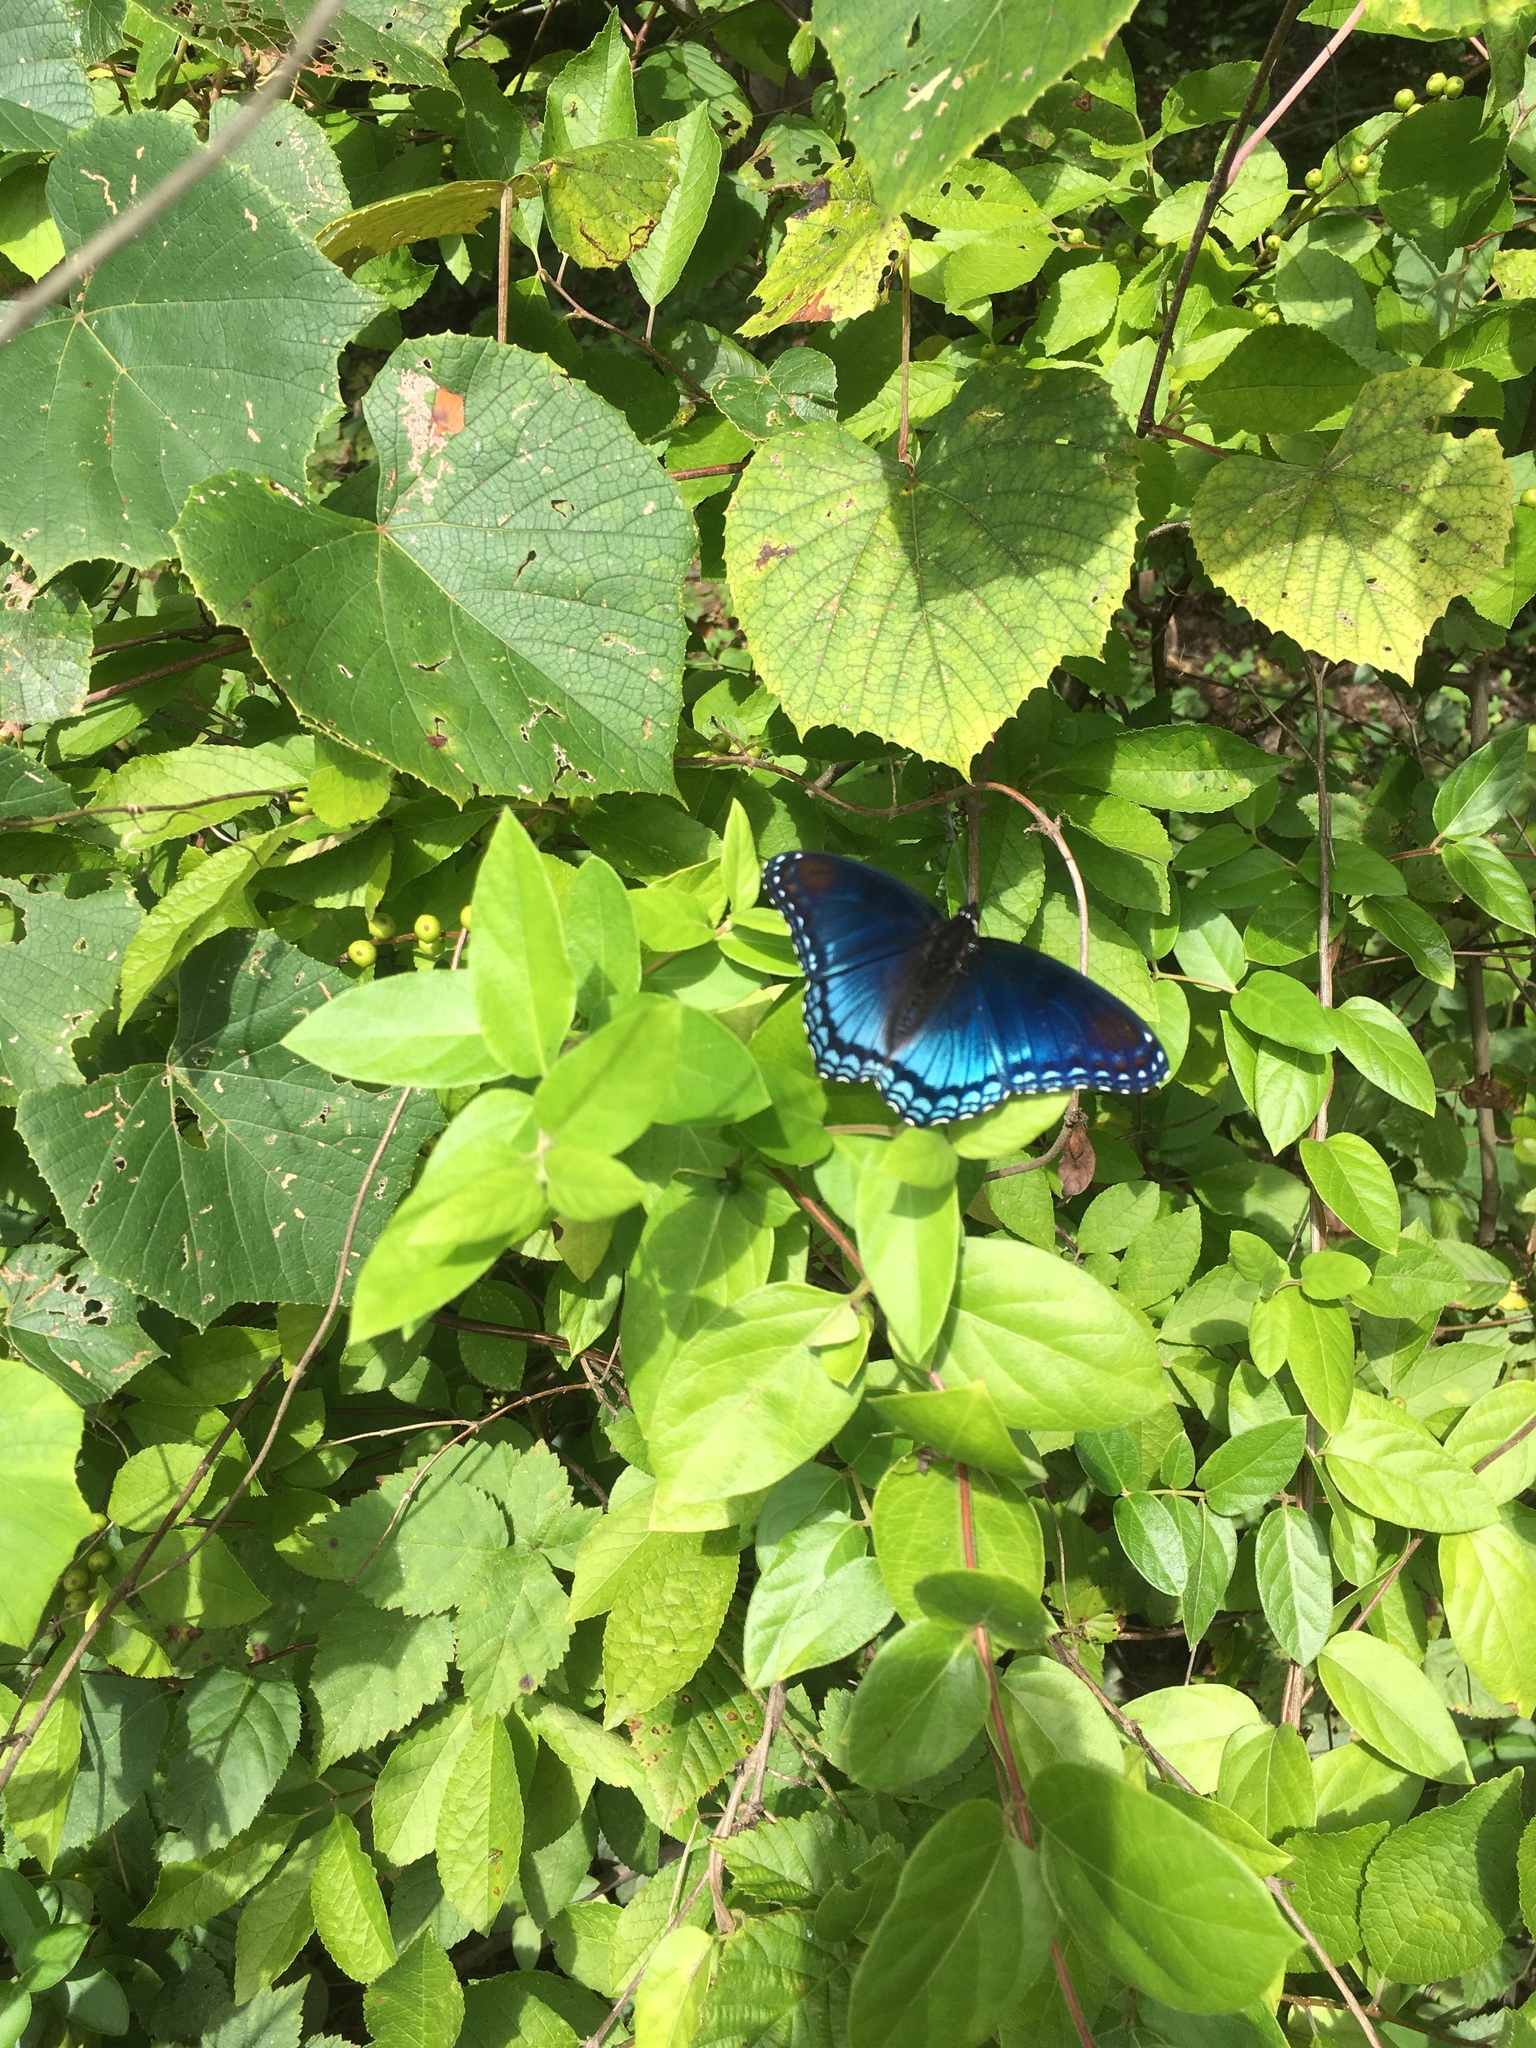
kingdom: Animalia
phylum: Arthropoda
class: Insecta
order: Lepidoptera
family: Nymphalidae
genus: Limenitis
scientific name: Limenitis arthemis
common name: Red-spotted admiral
